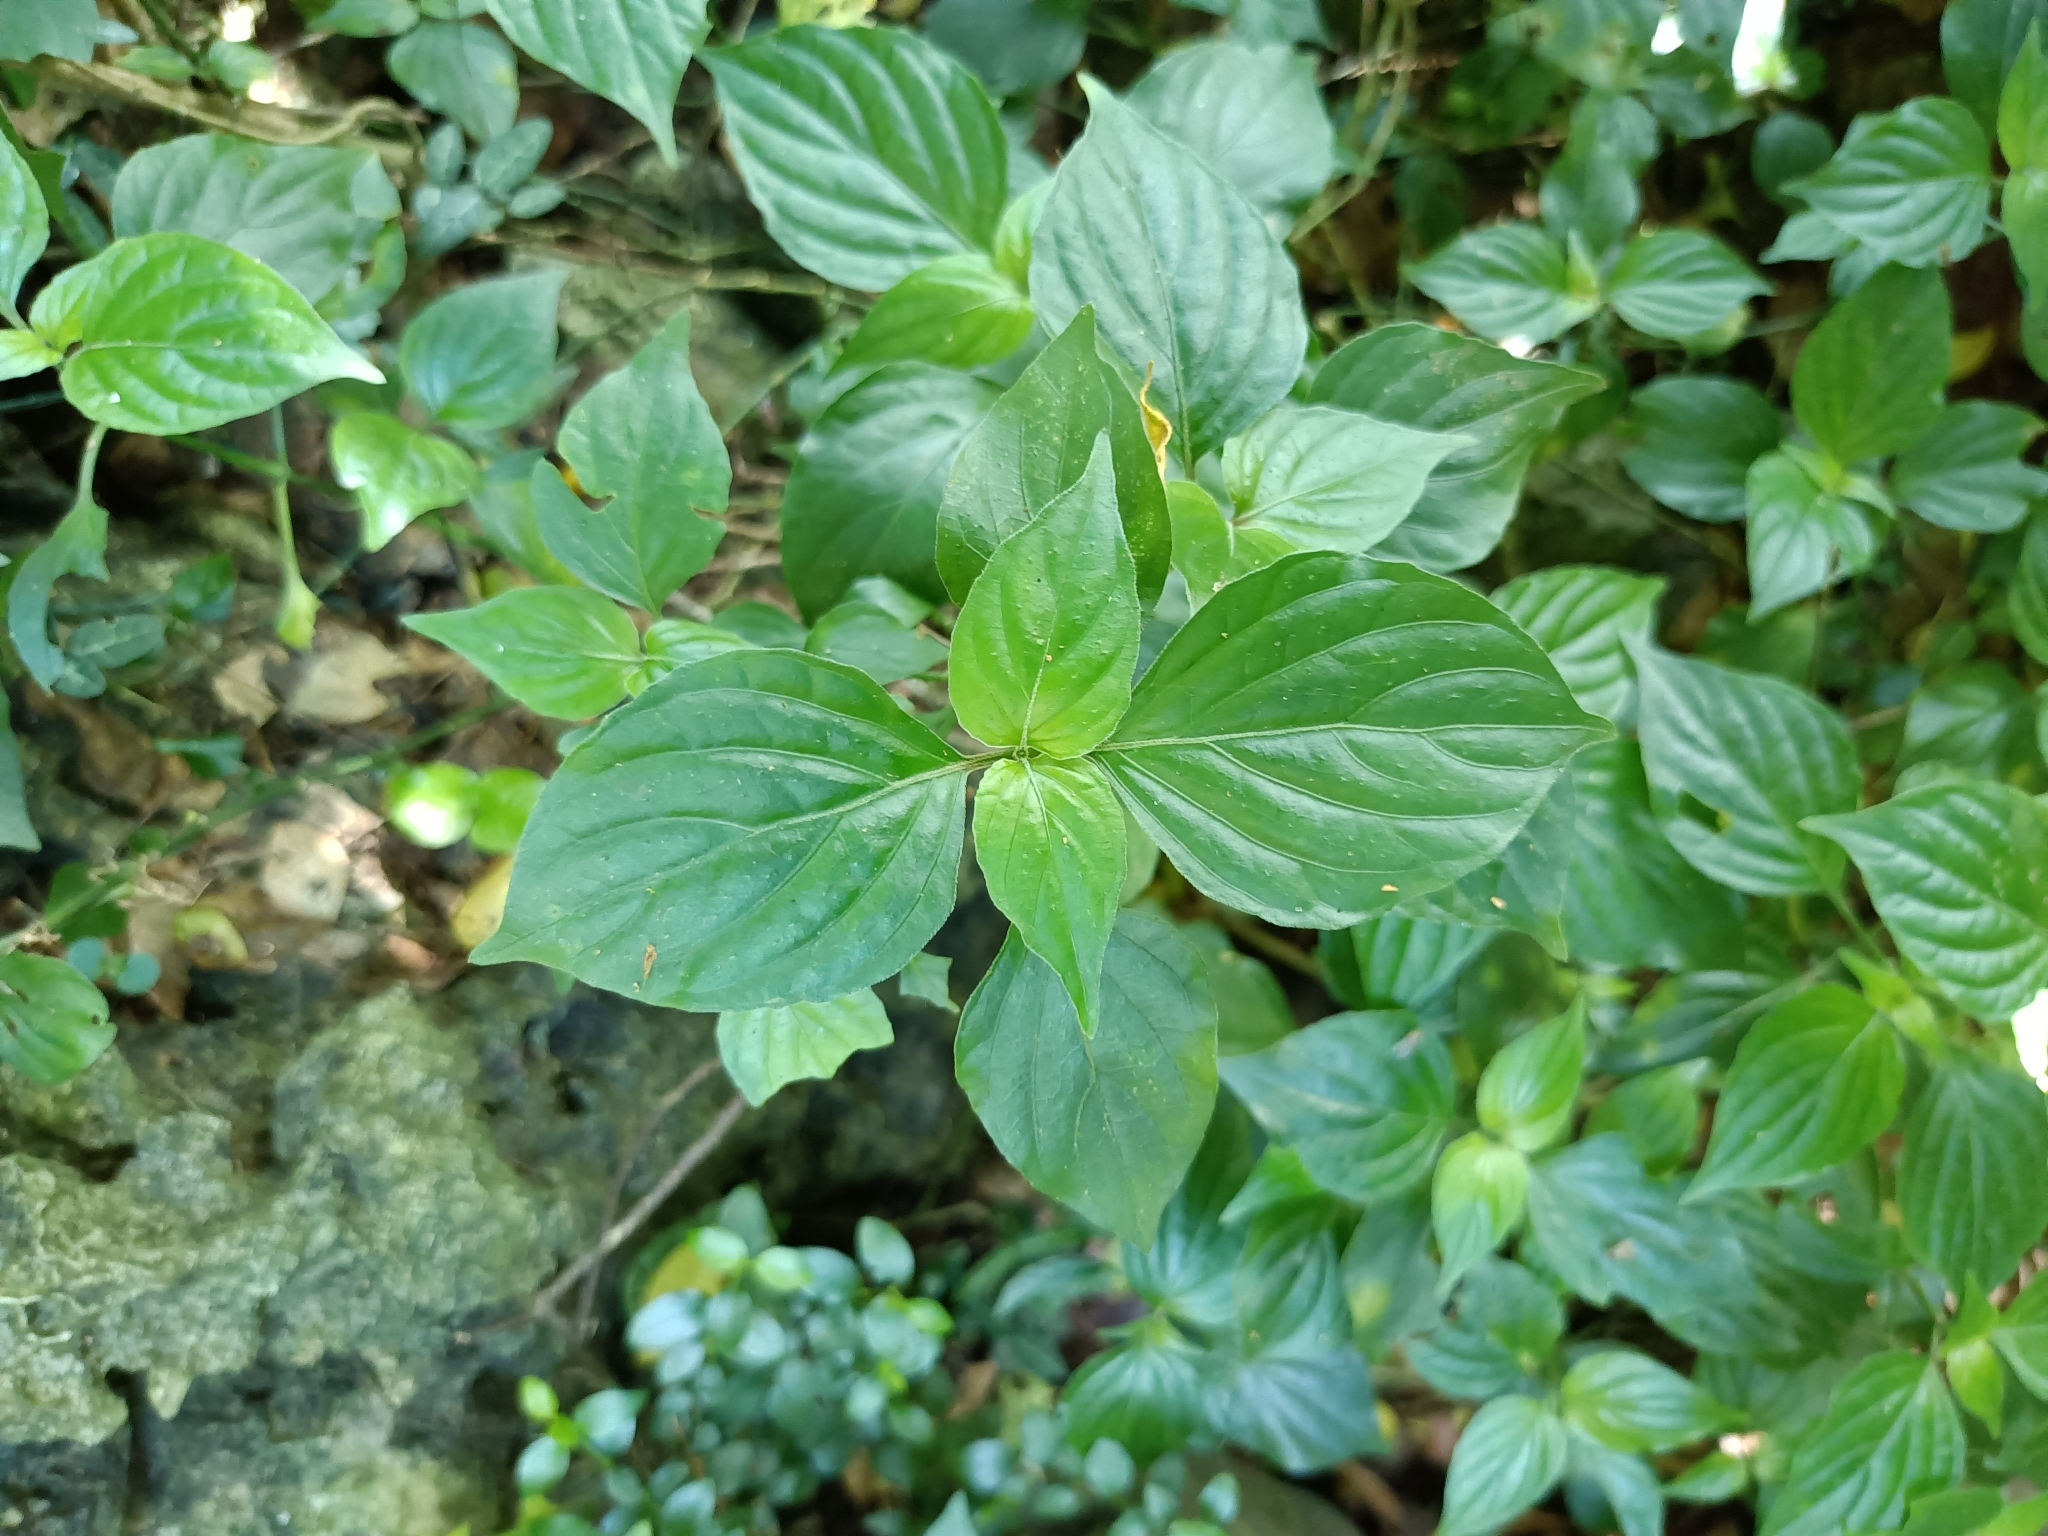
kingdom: Plantae
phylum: Tracheophyta
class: Magnoliopsida
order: Lamiales
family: Acanthaceae
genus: Dicliptera
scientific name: Dicliptera chinensis
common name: Chinese foldwing
